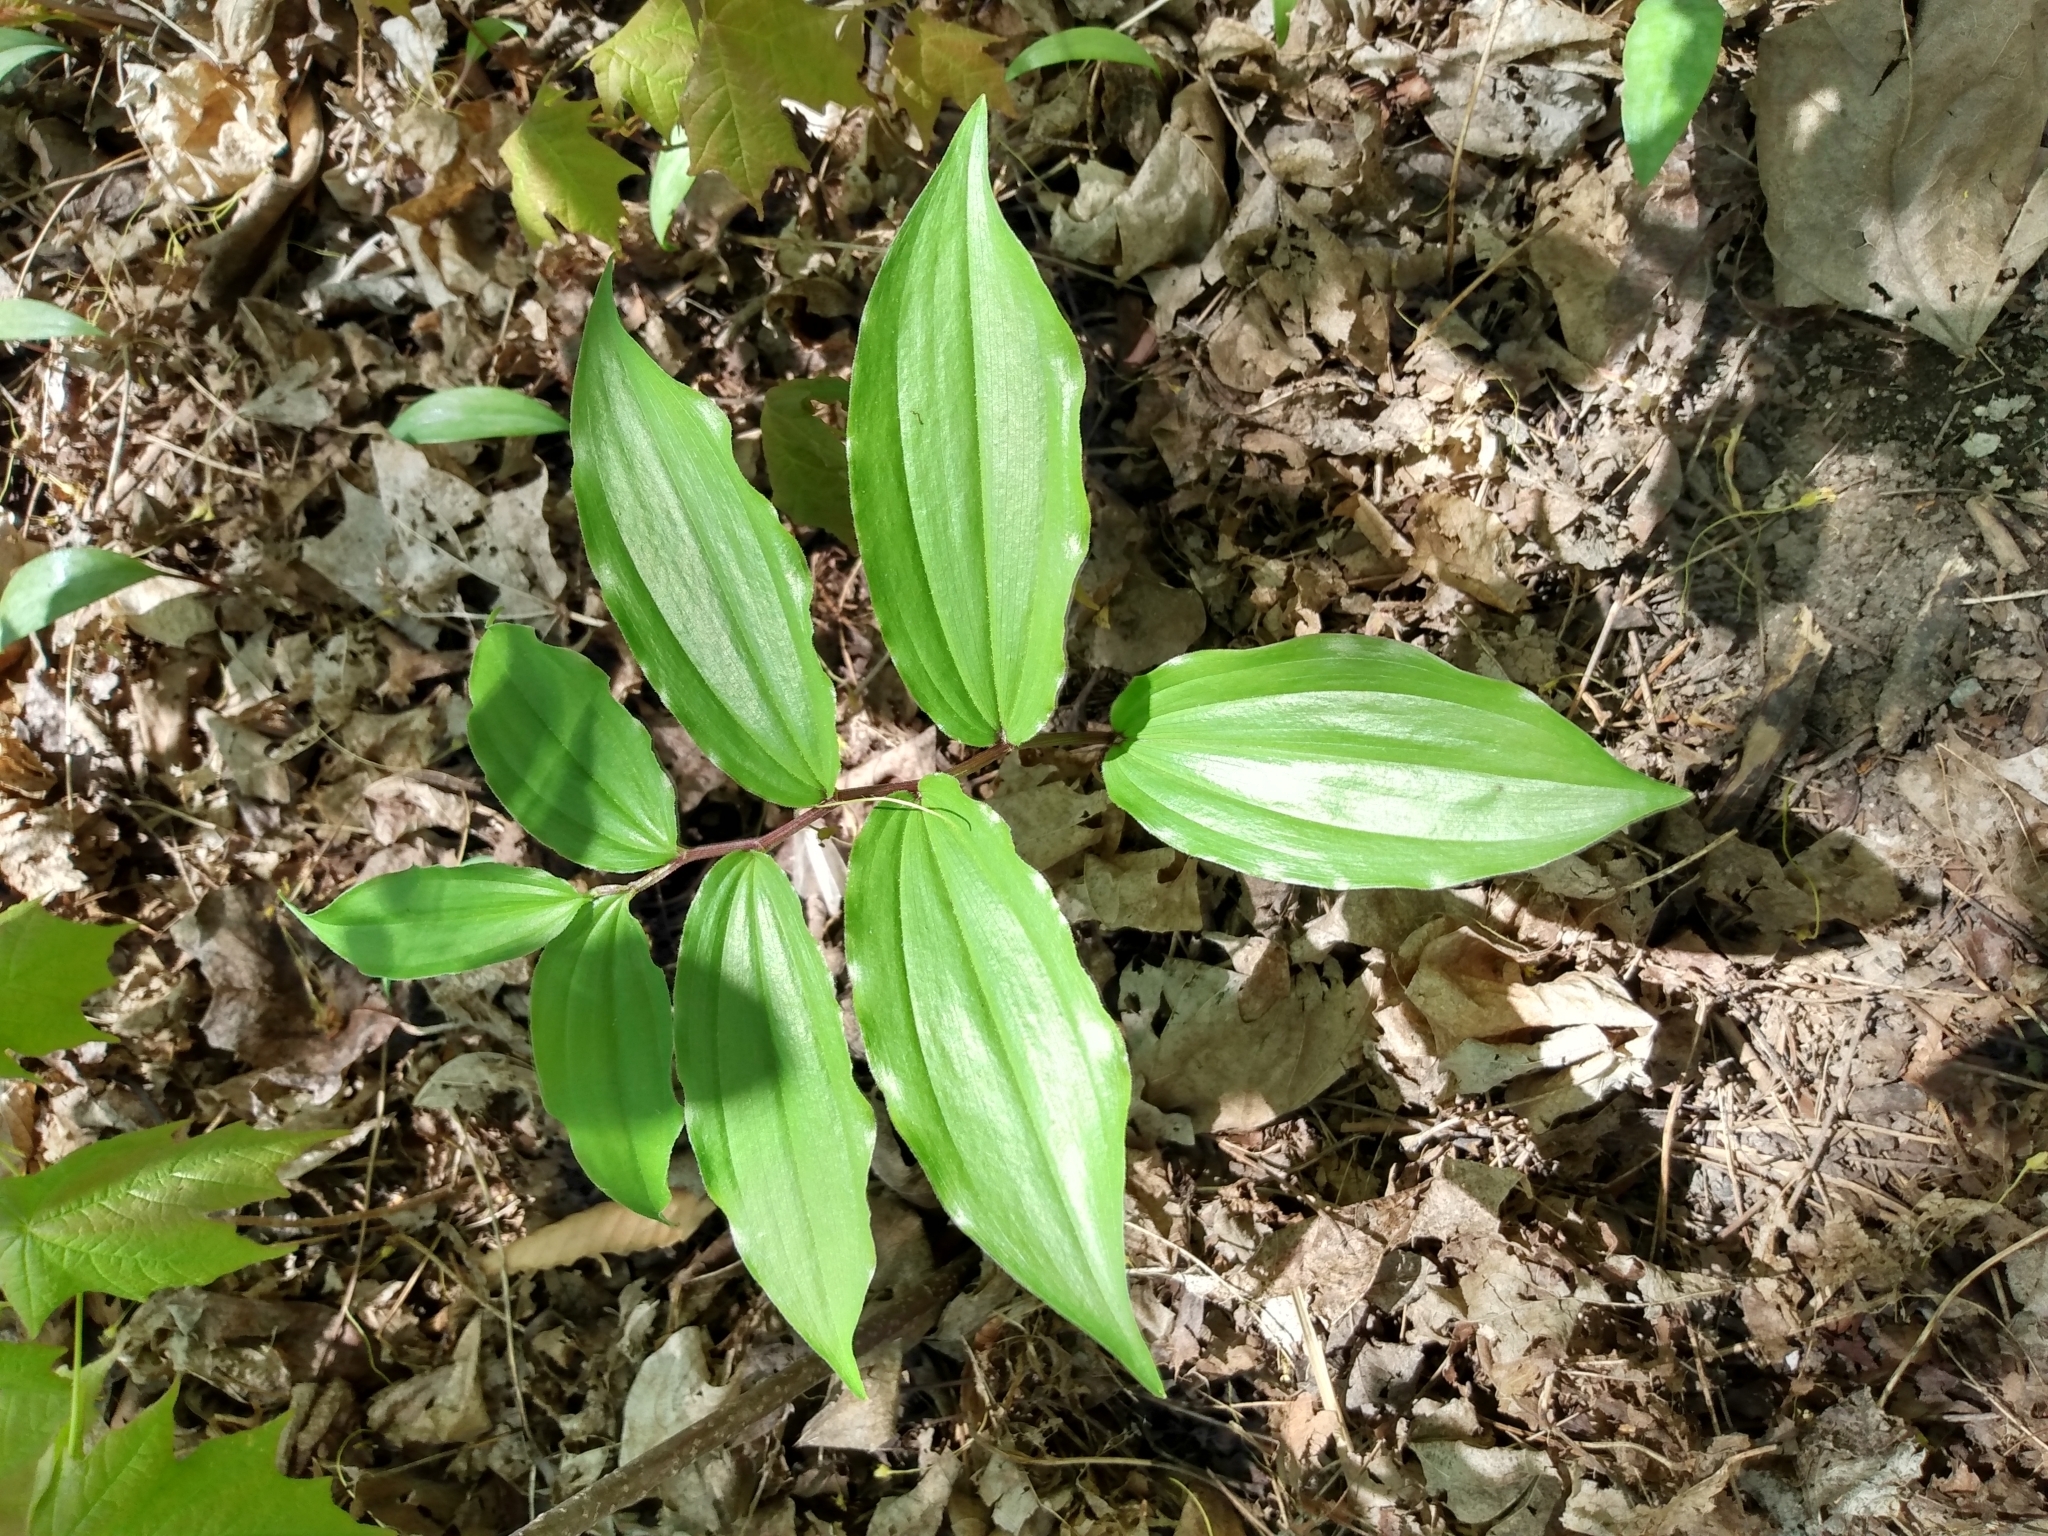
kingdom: Plantae
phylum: Tracheophyta
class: Liliopsida
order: Asparagales
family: Asparagaceae
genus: Maianthemum
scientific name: Maianthemum racemosum
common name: False spikenard
